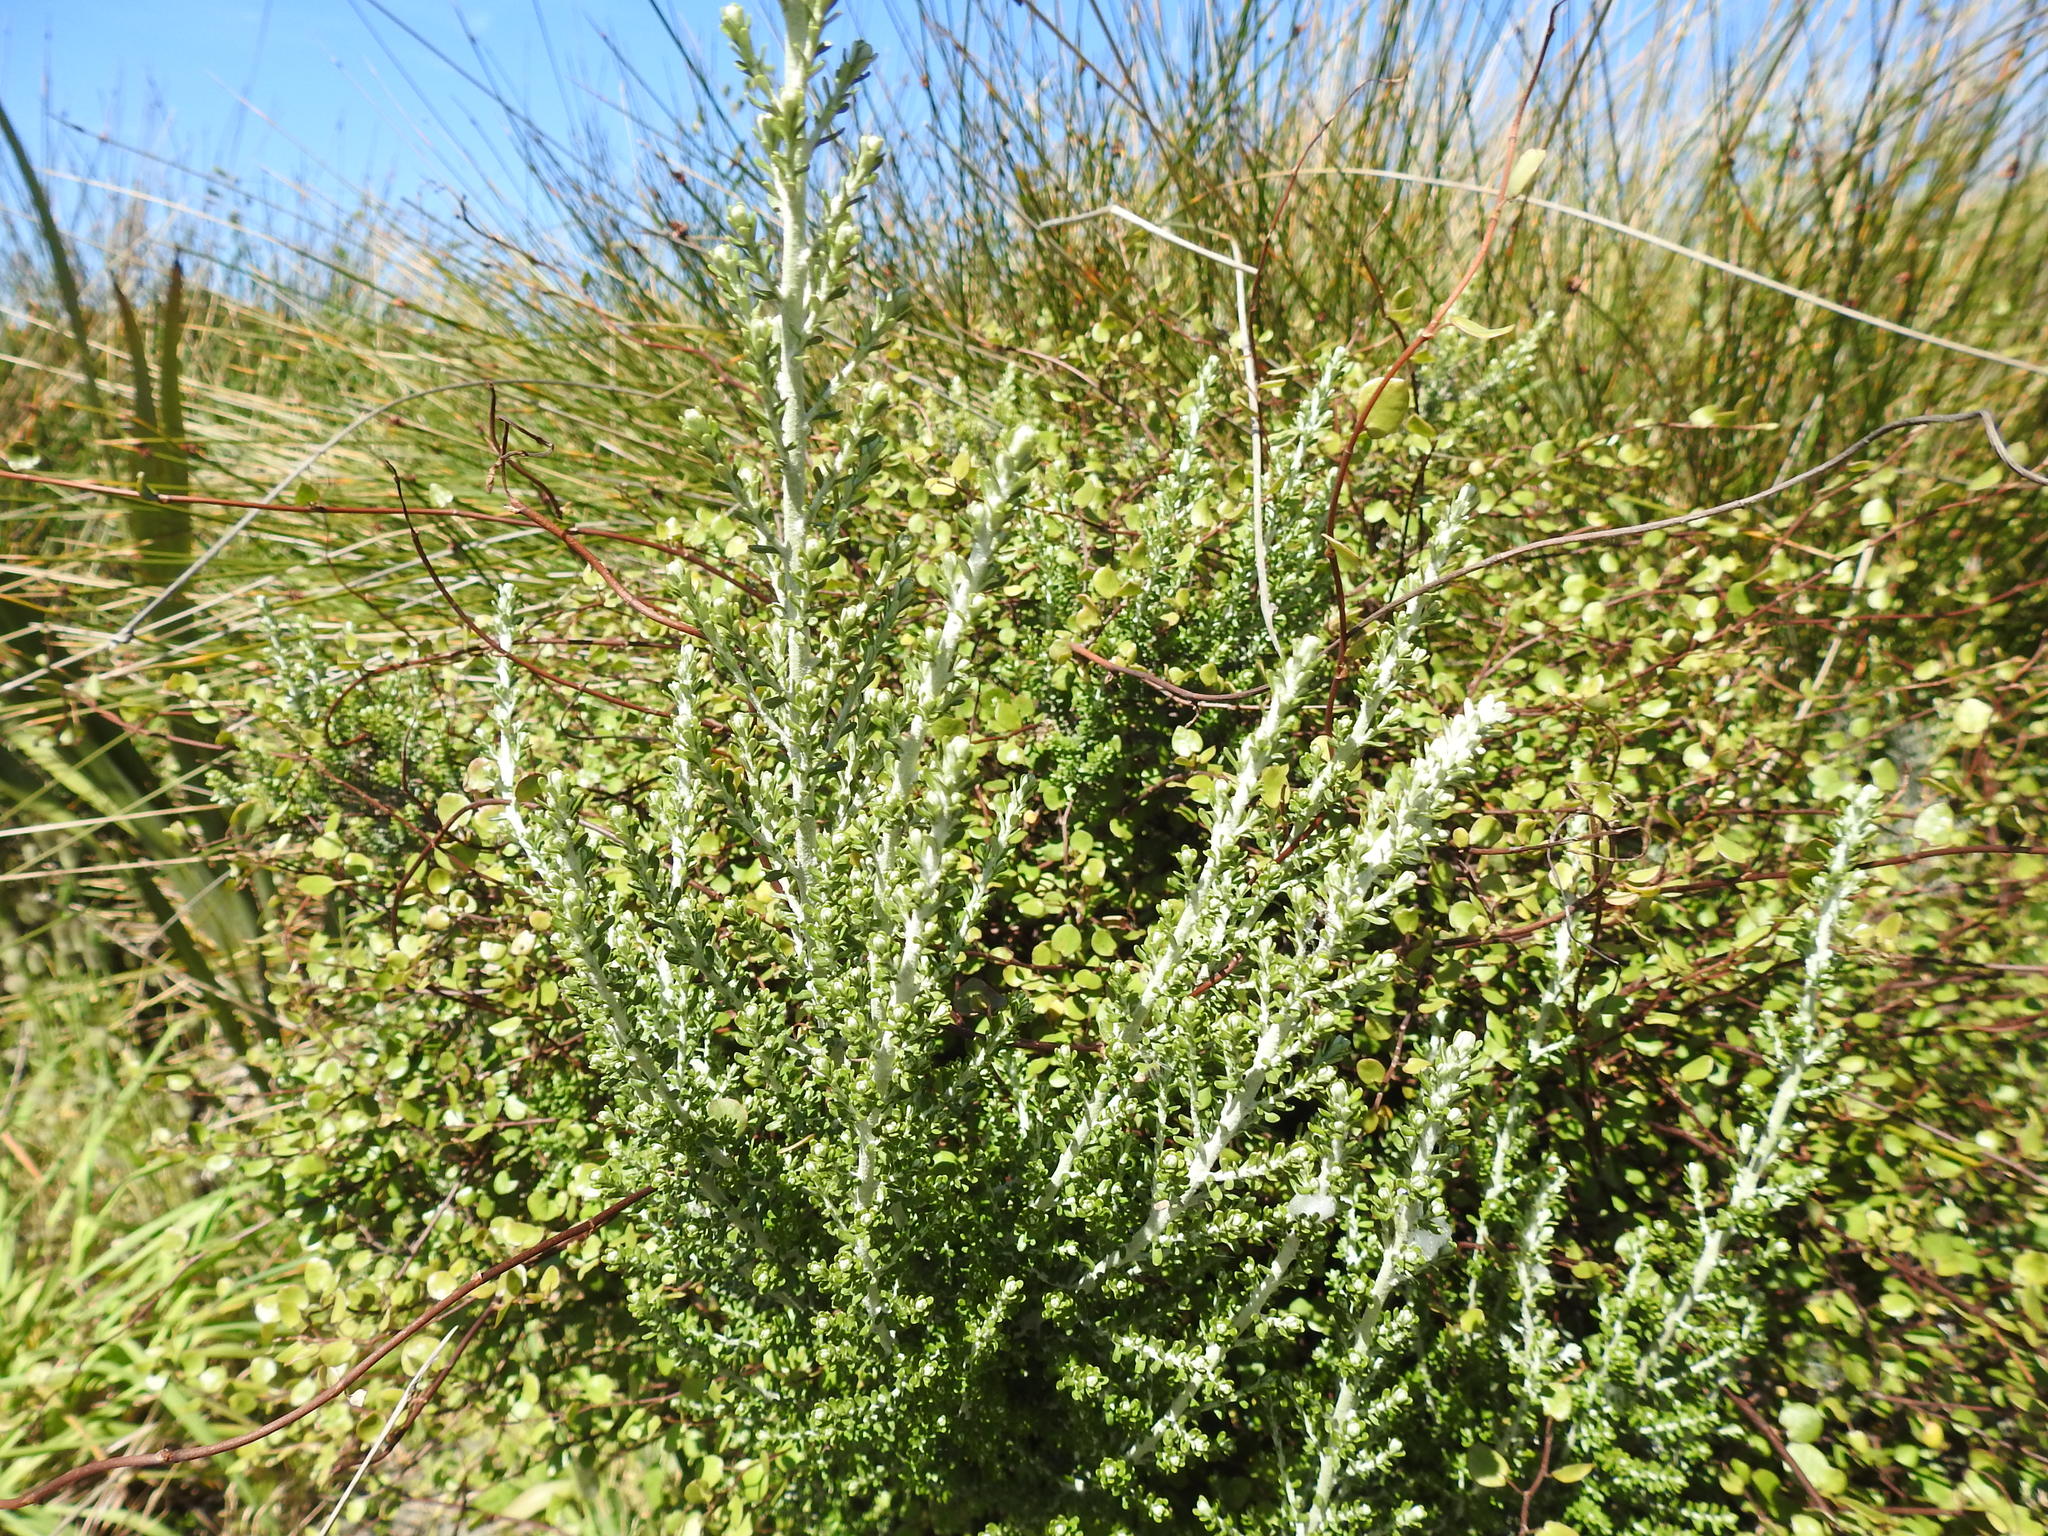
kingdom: Plantae
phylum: Tracheophyta
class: Magnoliopsida
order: Asterales
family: Asteraceae
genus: Ozothamnus
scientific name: Ozothamnus leptophyllus
